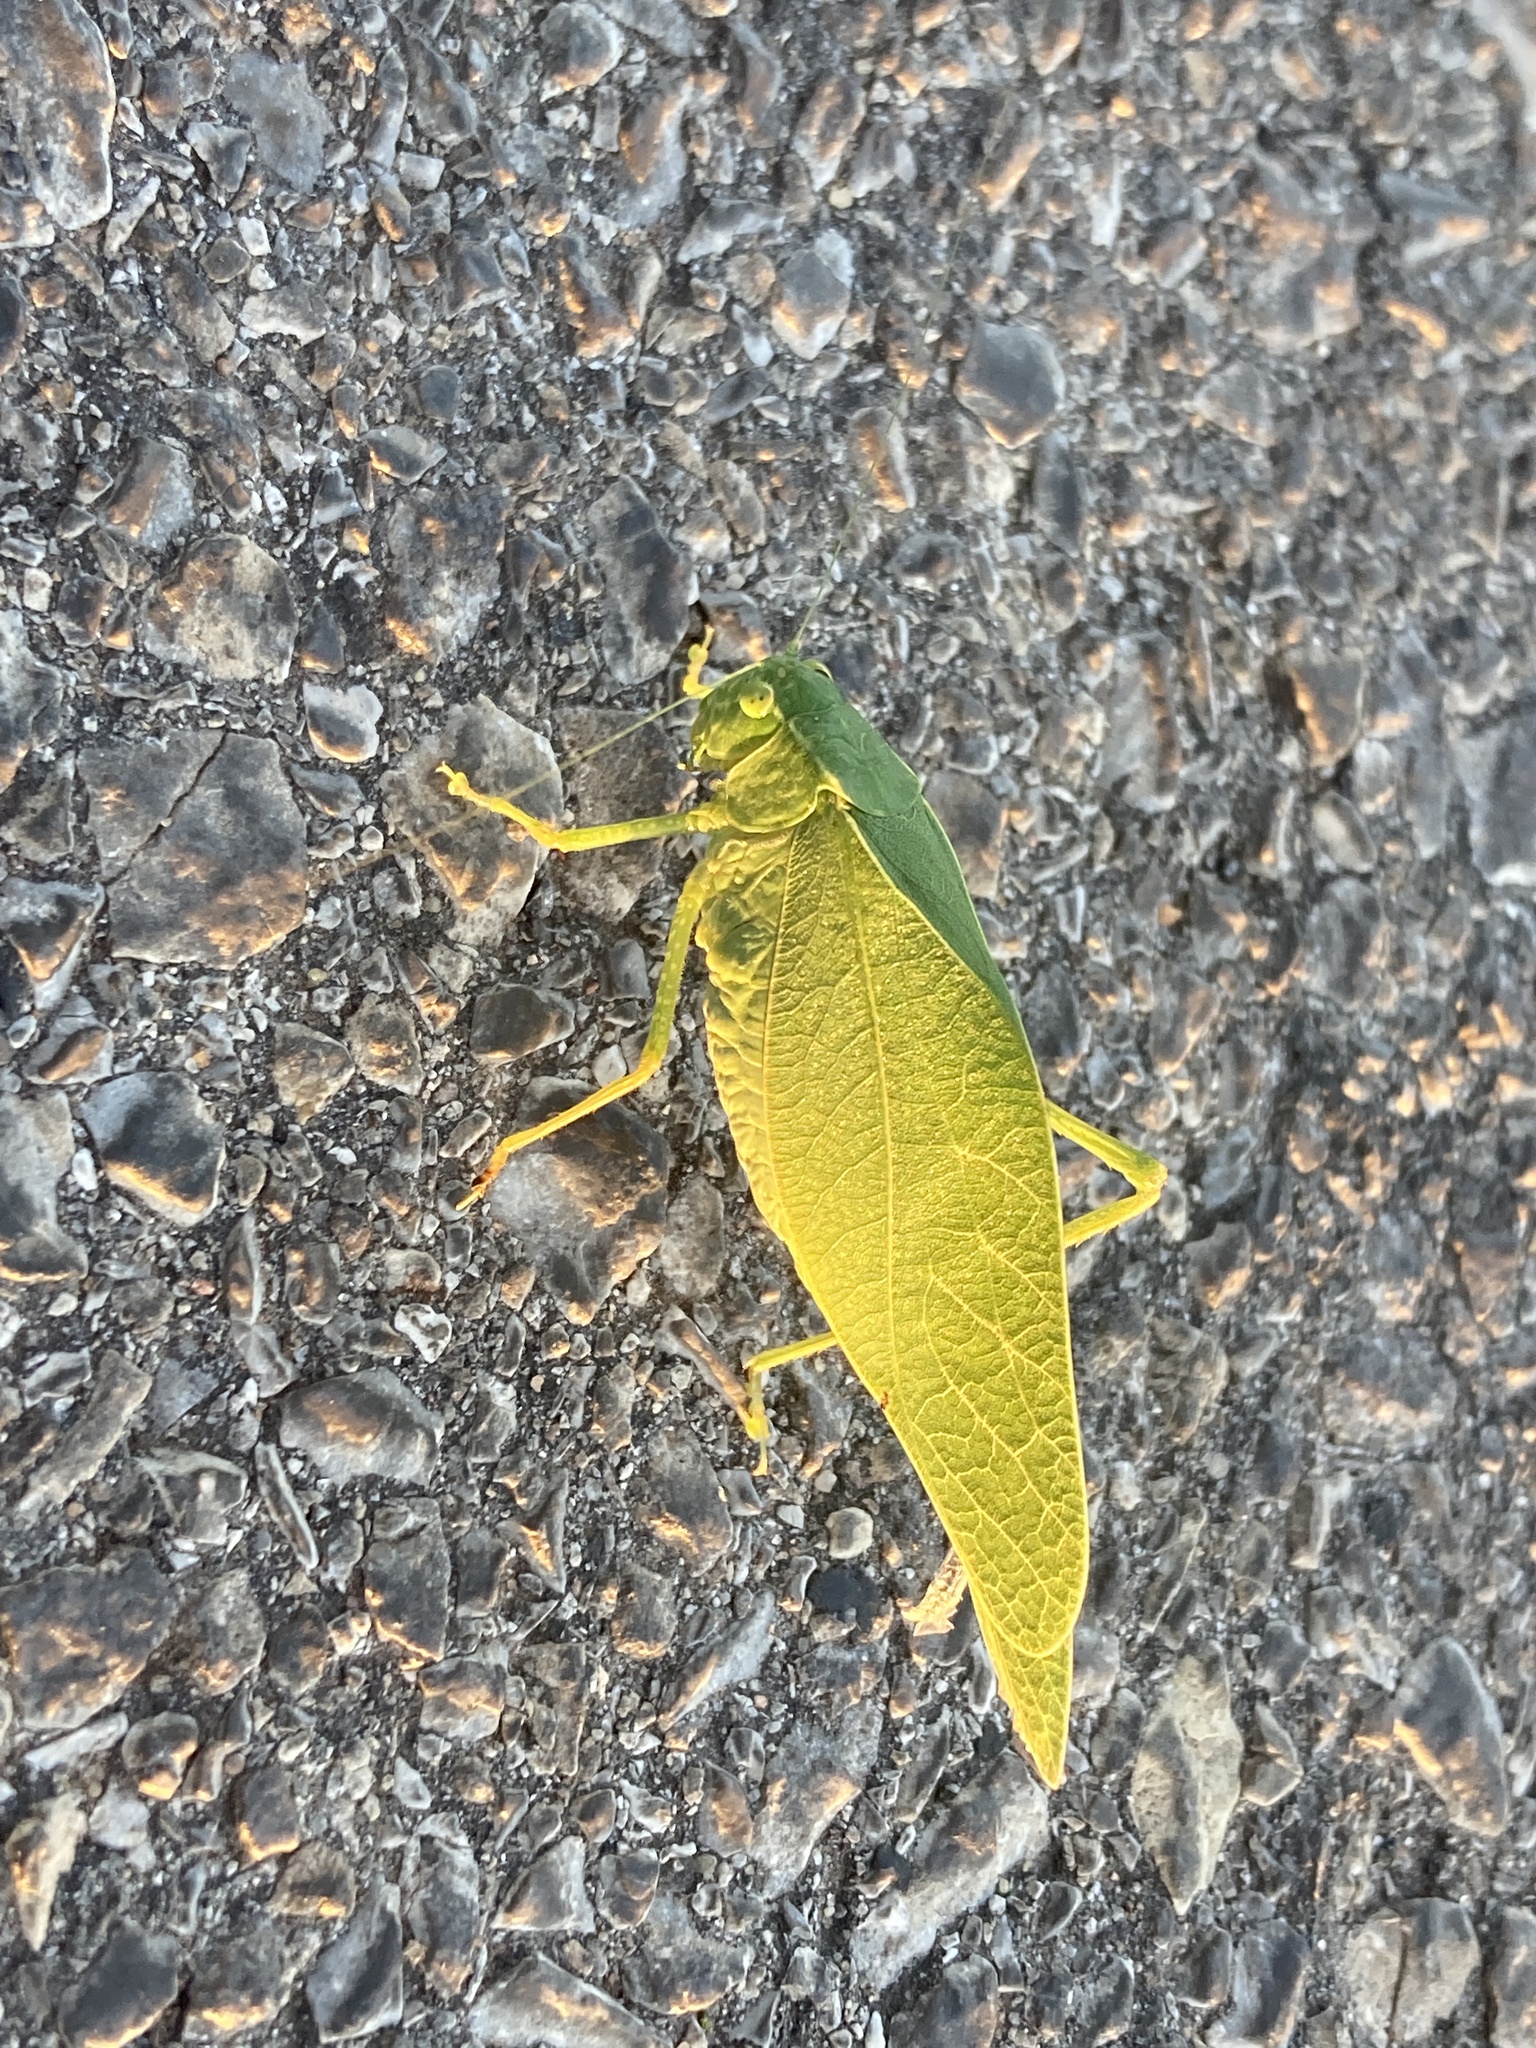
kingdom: Animalia
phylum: Arthropoda
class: Insecta
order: Orthoptera
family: Tettigoniidae
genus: Microcentrum
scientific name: Microcentrum rhombifolium
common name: Broad-winged katydid
